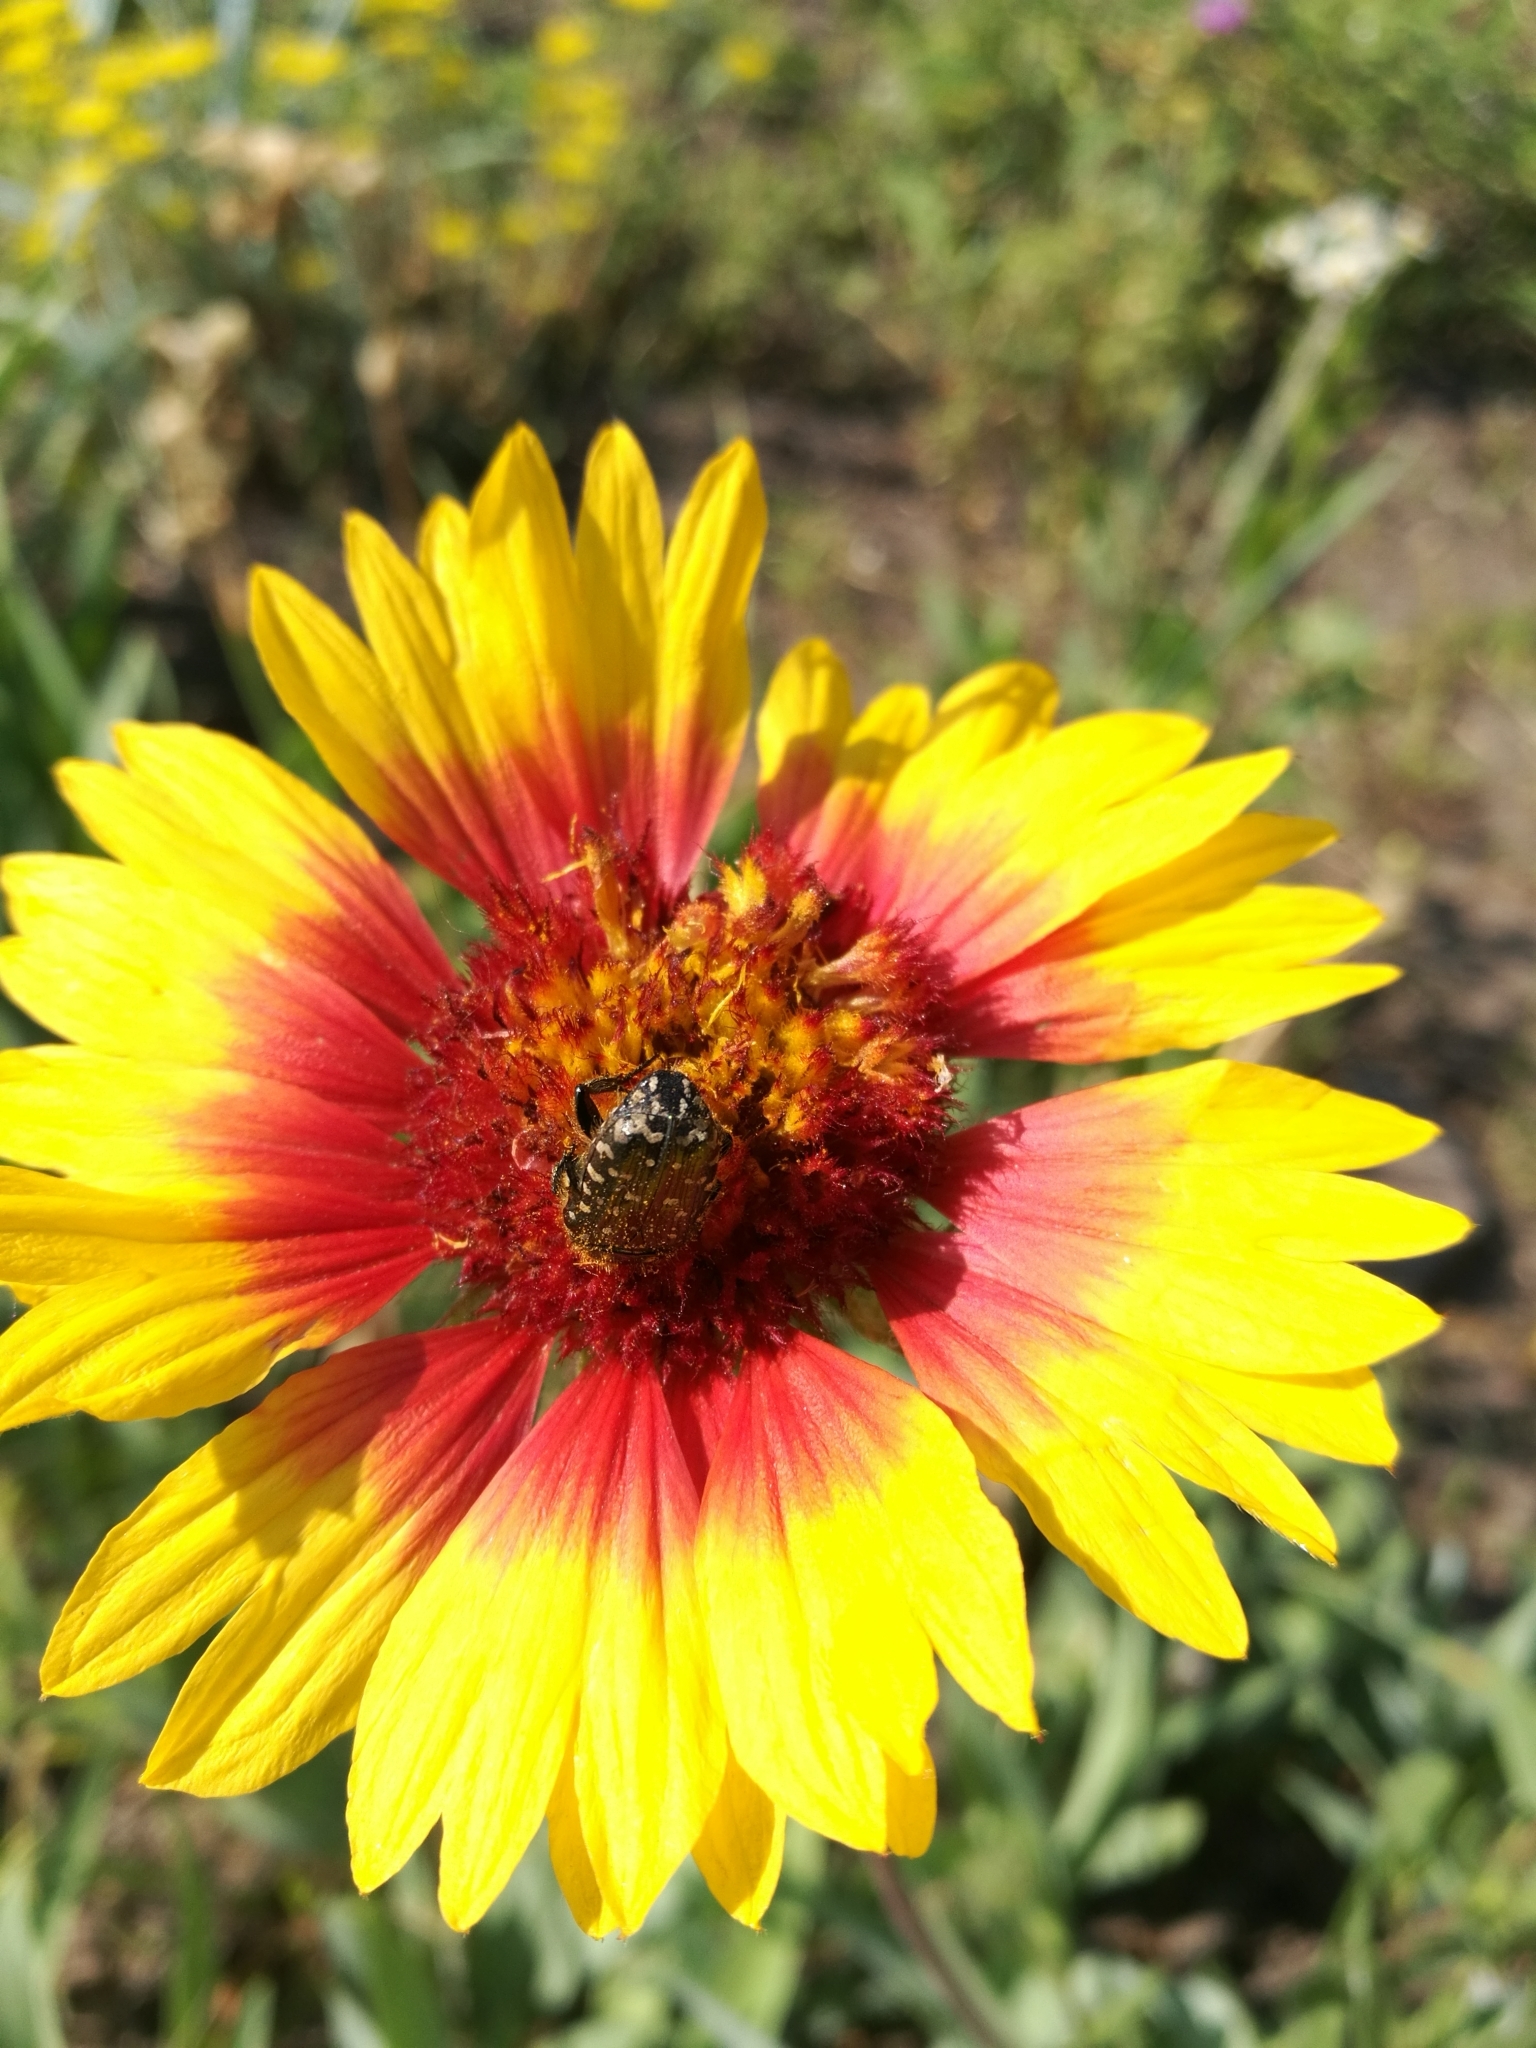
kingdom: Animalia
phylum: Arthropoda
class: Insecta
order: Coleoptera
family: Scarabaeidae
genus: Oxythyrea
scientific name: Oxythyrea funesta
